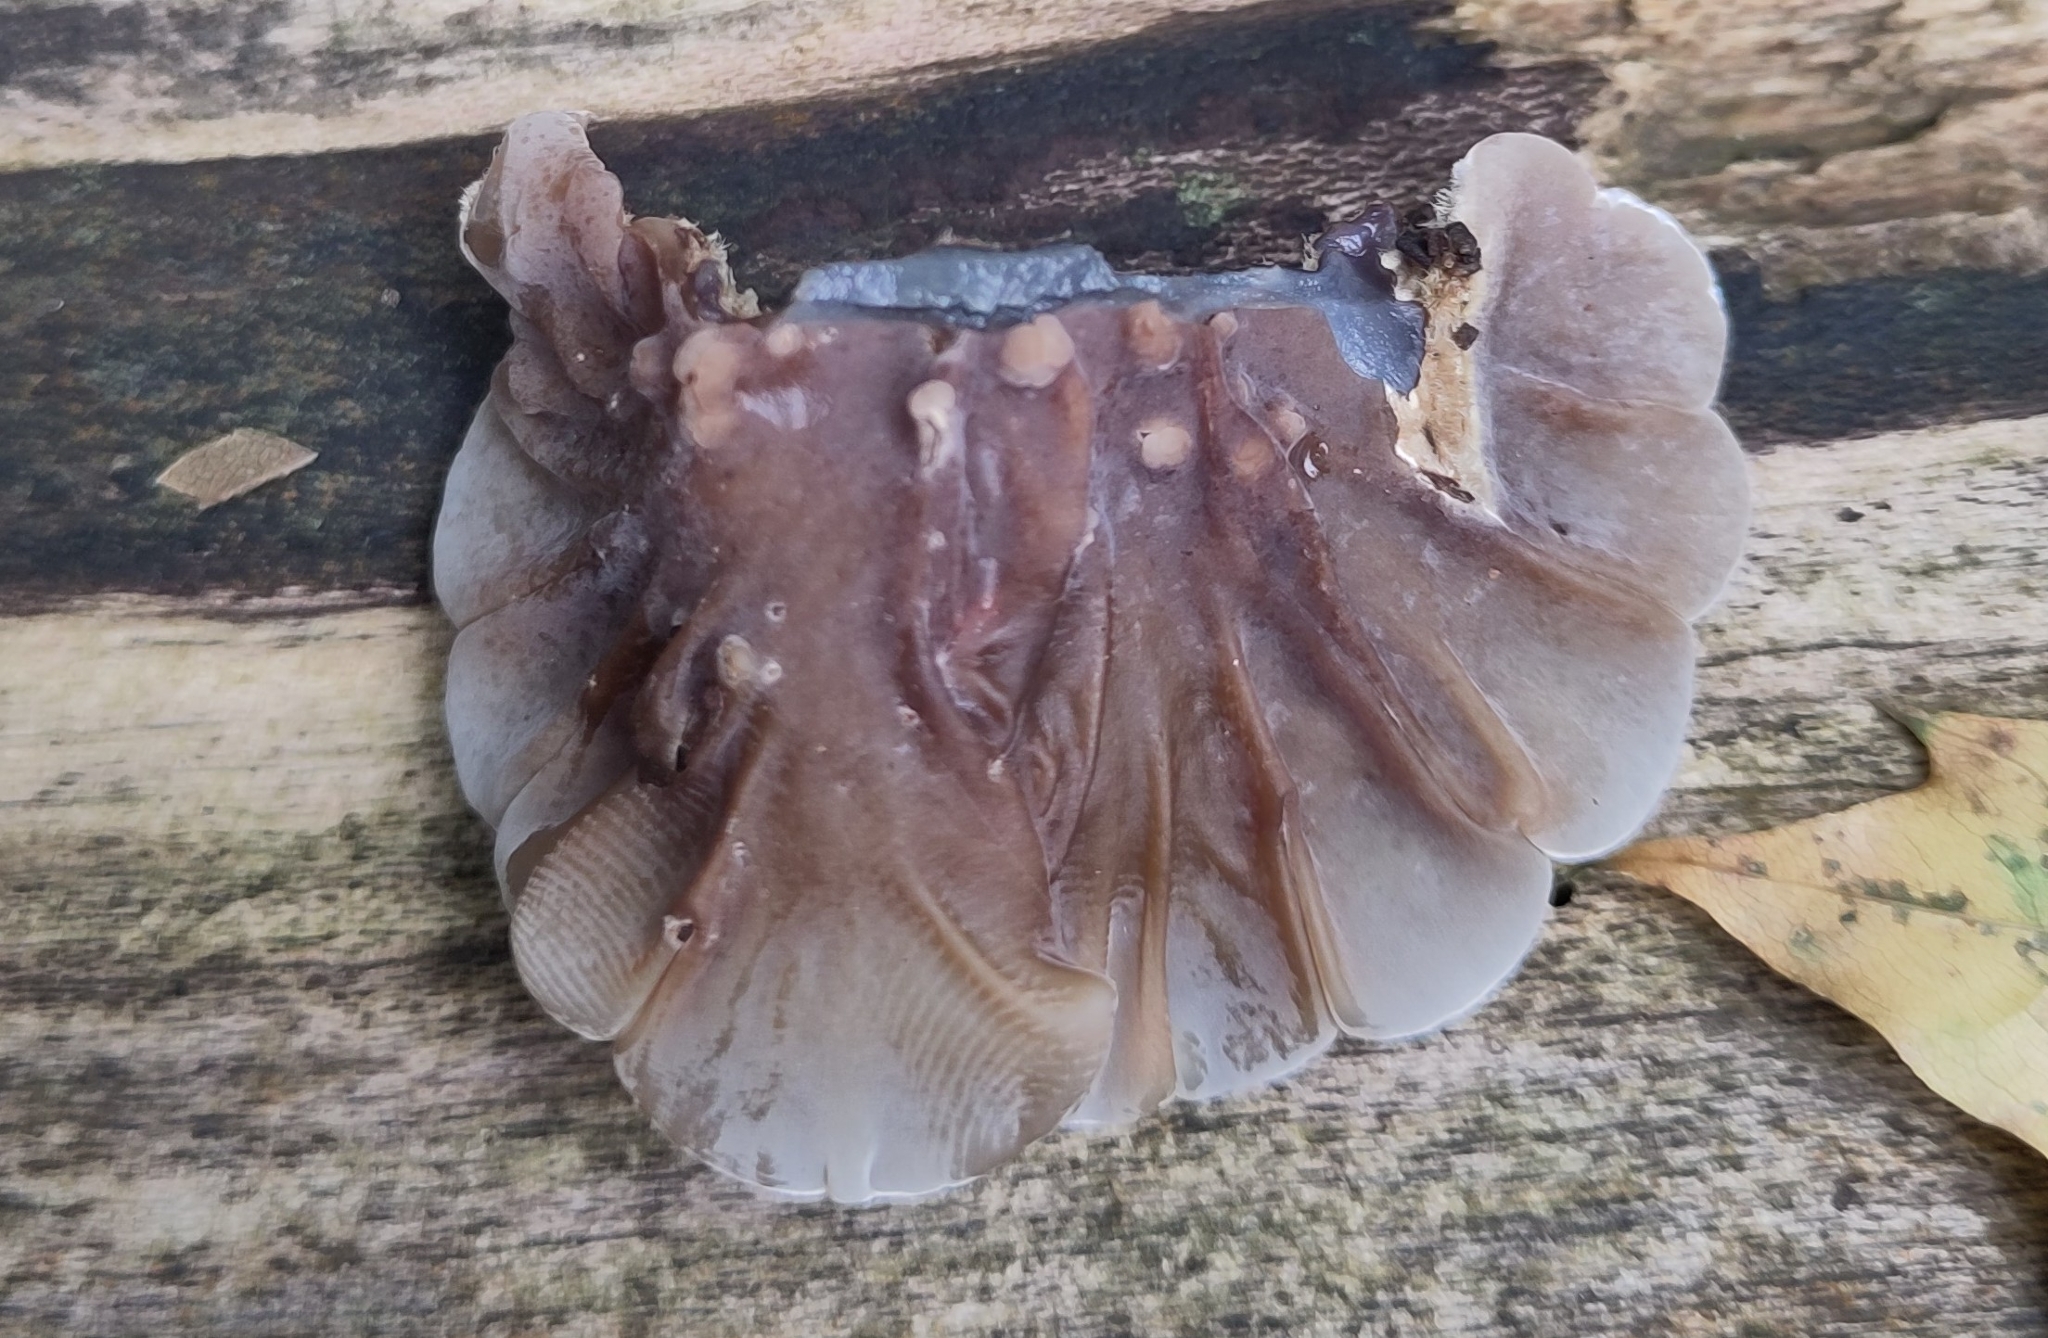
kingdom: Fungi
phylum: Basidiomycota
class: Agaricomycetes
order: Auriculariales
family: Auriculariaceae
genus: Auricularia
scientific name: Auricularia mesenterica
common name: Tripe fungus
